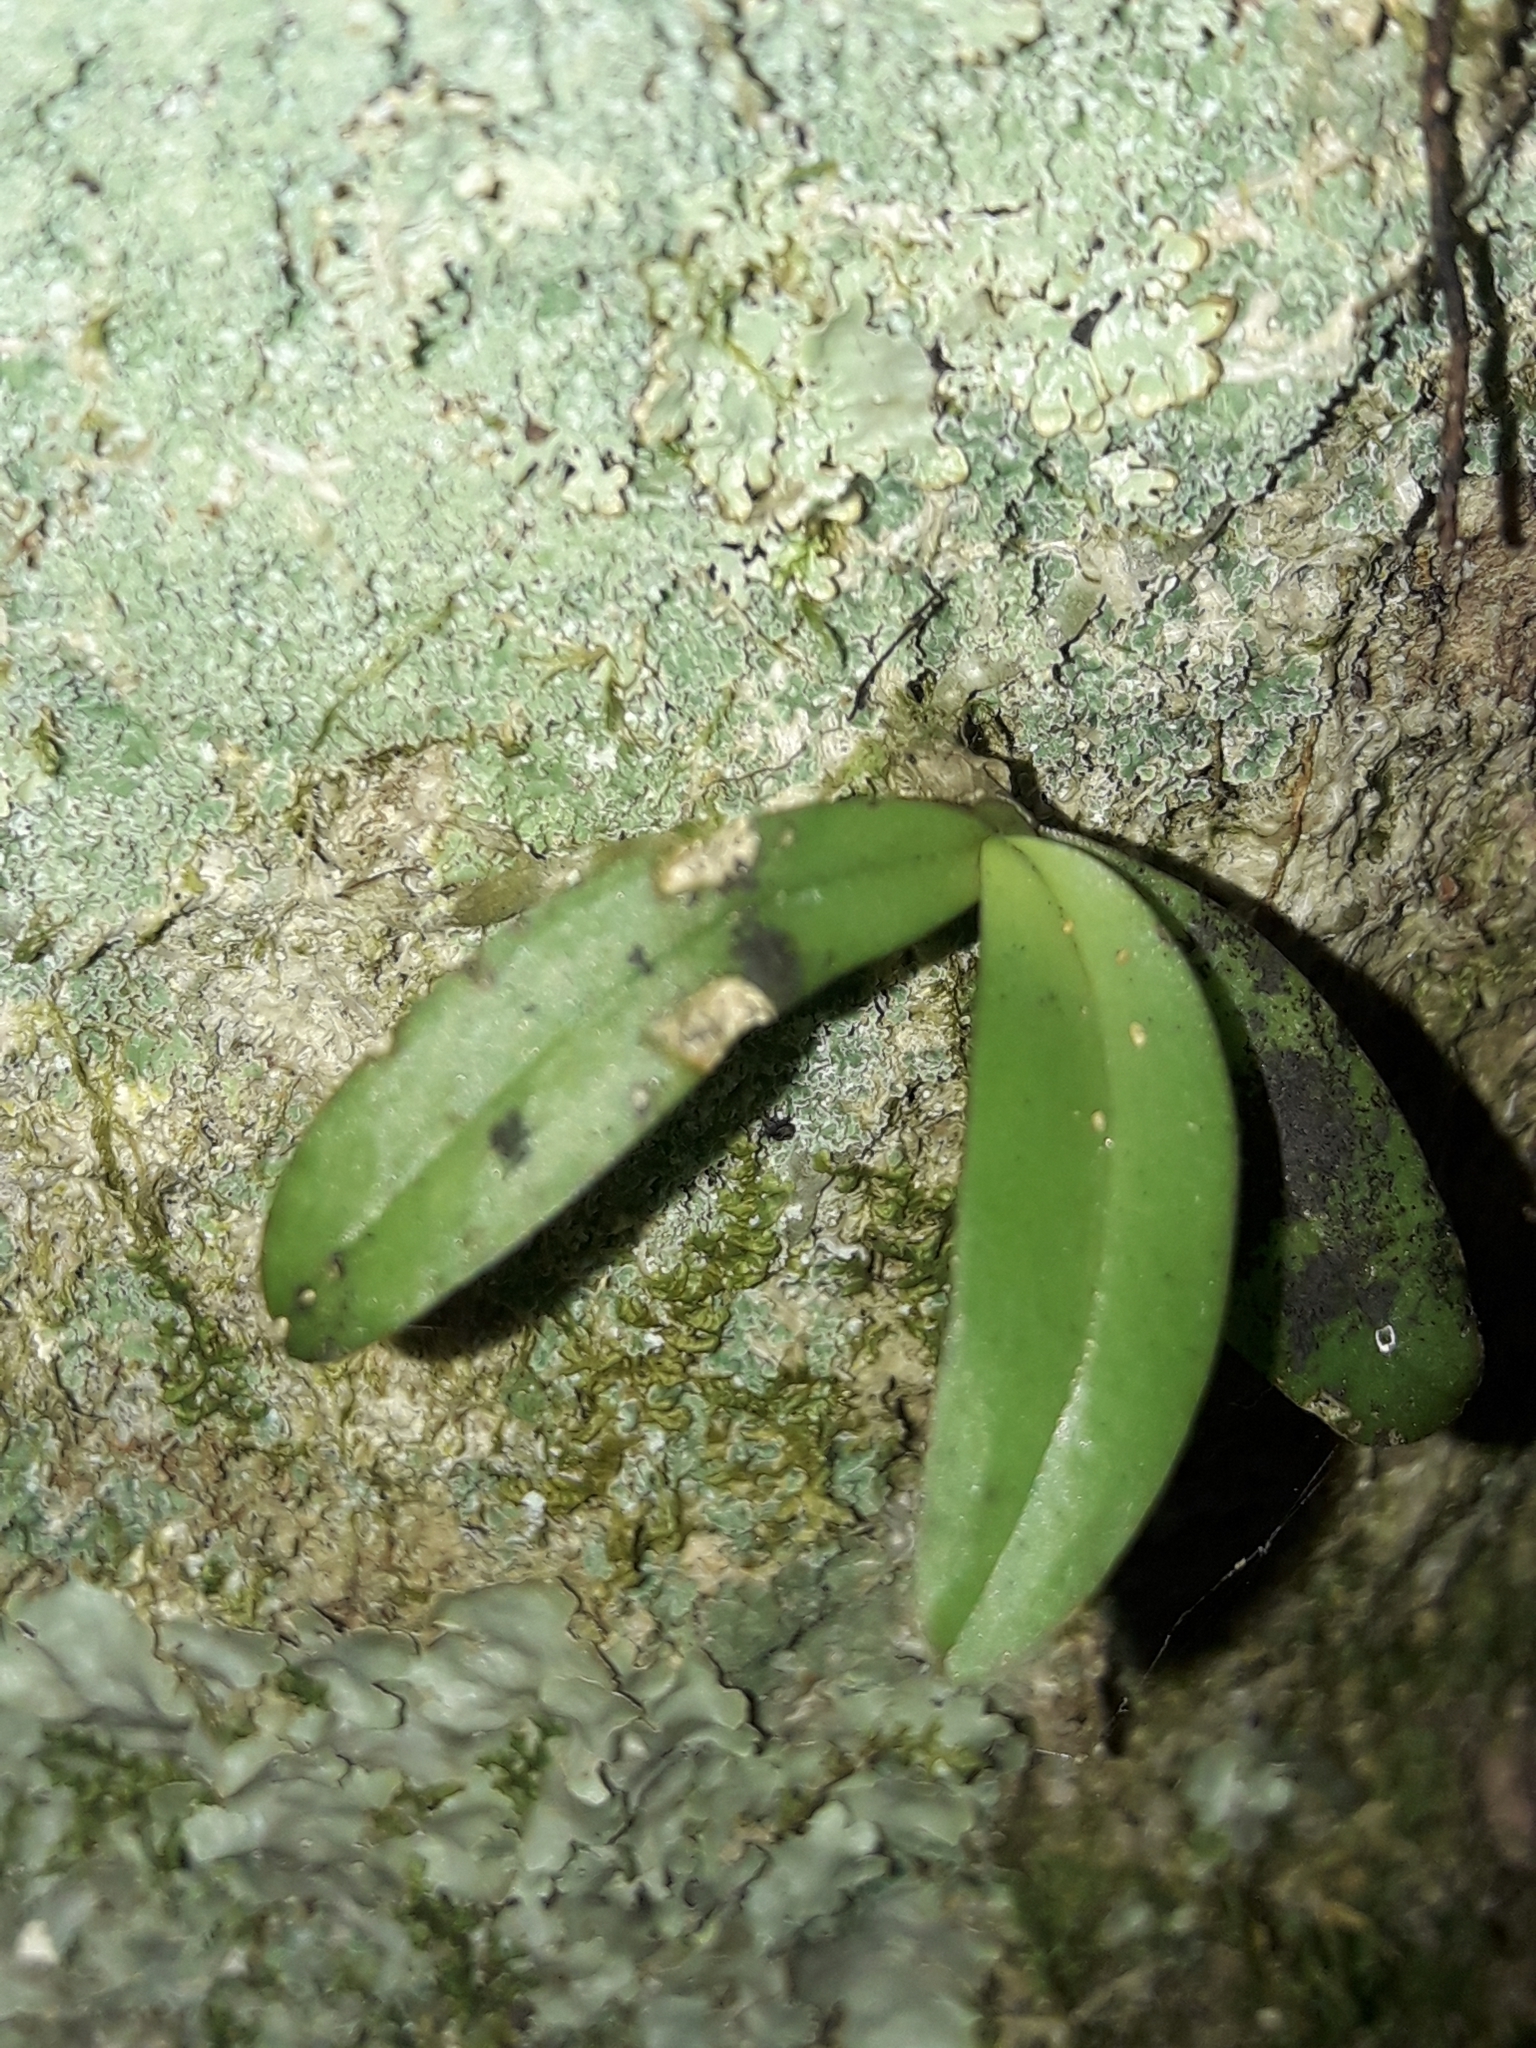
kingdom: Plantae
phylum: Tracheophyta
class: Liliopsida
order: Asparagales
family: Orchidaceae
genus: Drymoanthus
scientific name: Drymoanthus adversus
